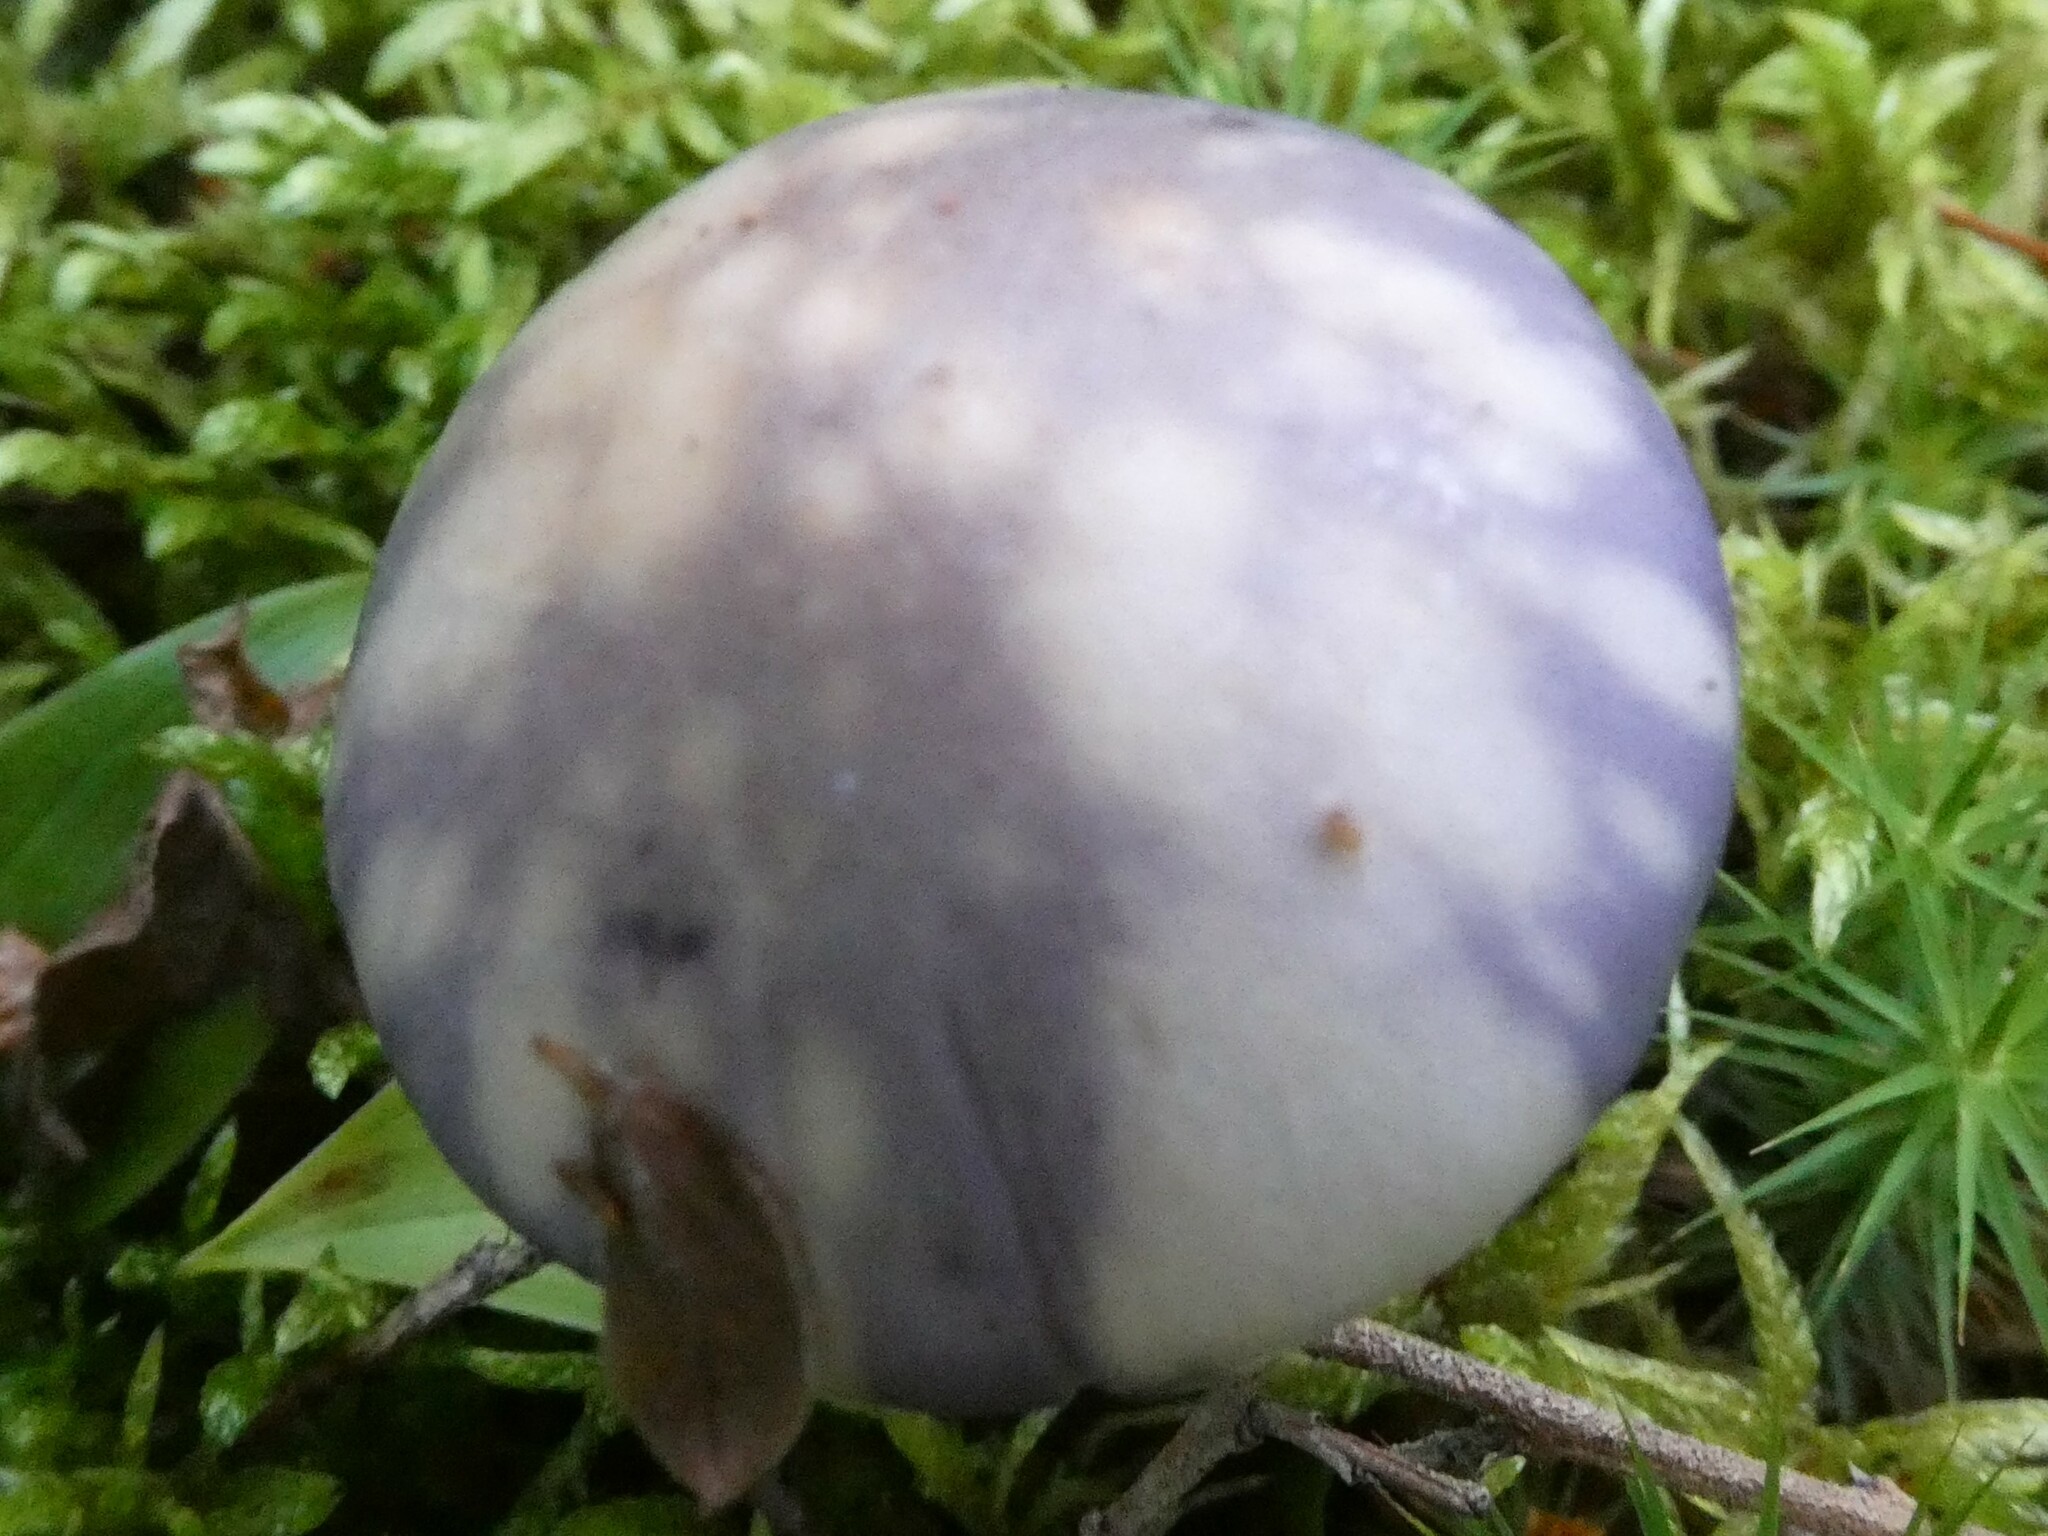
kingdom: Fungi
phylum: Basidiomycota
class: Agaricomycetes
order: Agaricales
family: Cortinariaceae
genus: Cortinarius
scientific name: Cortinarius iodes
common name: Viscid violet cort
